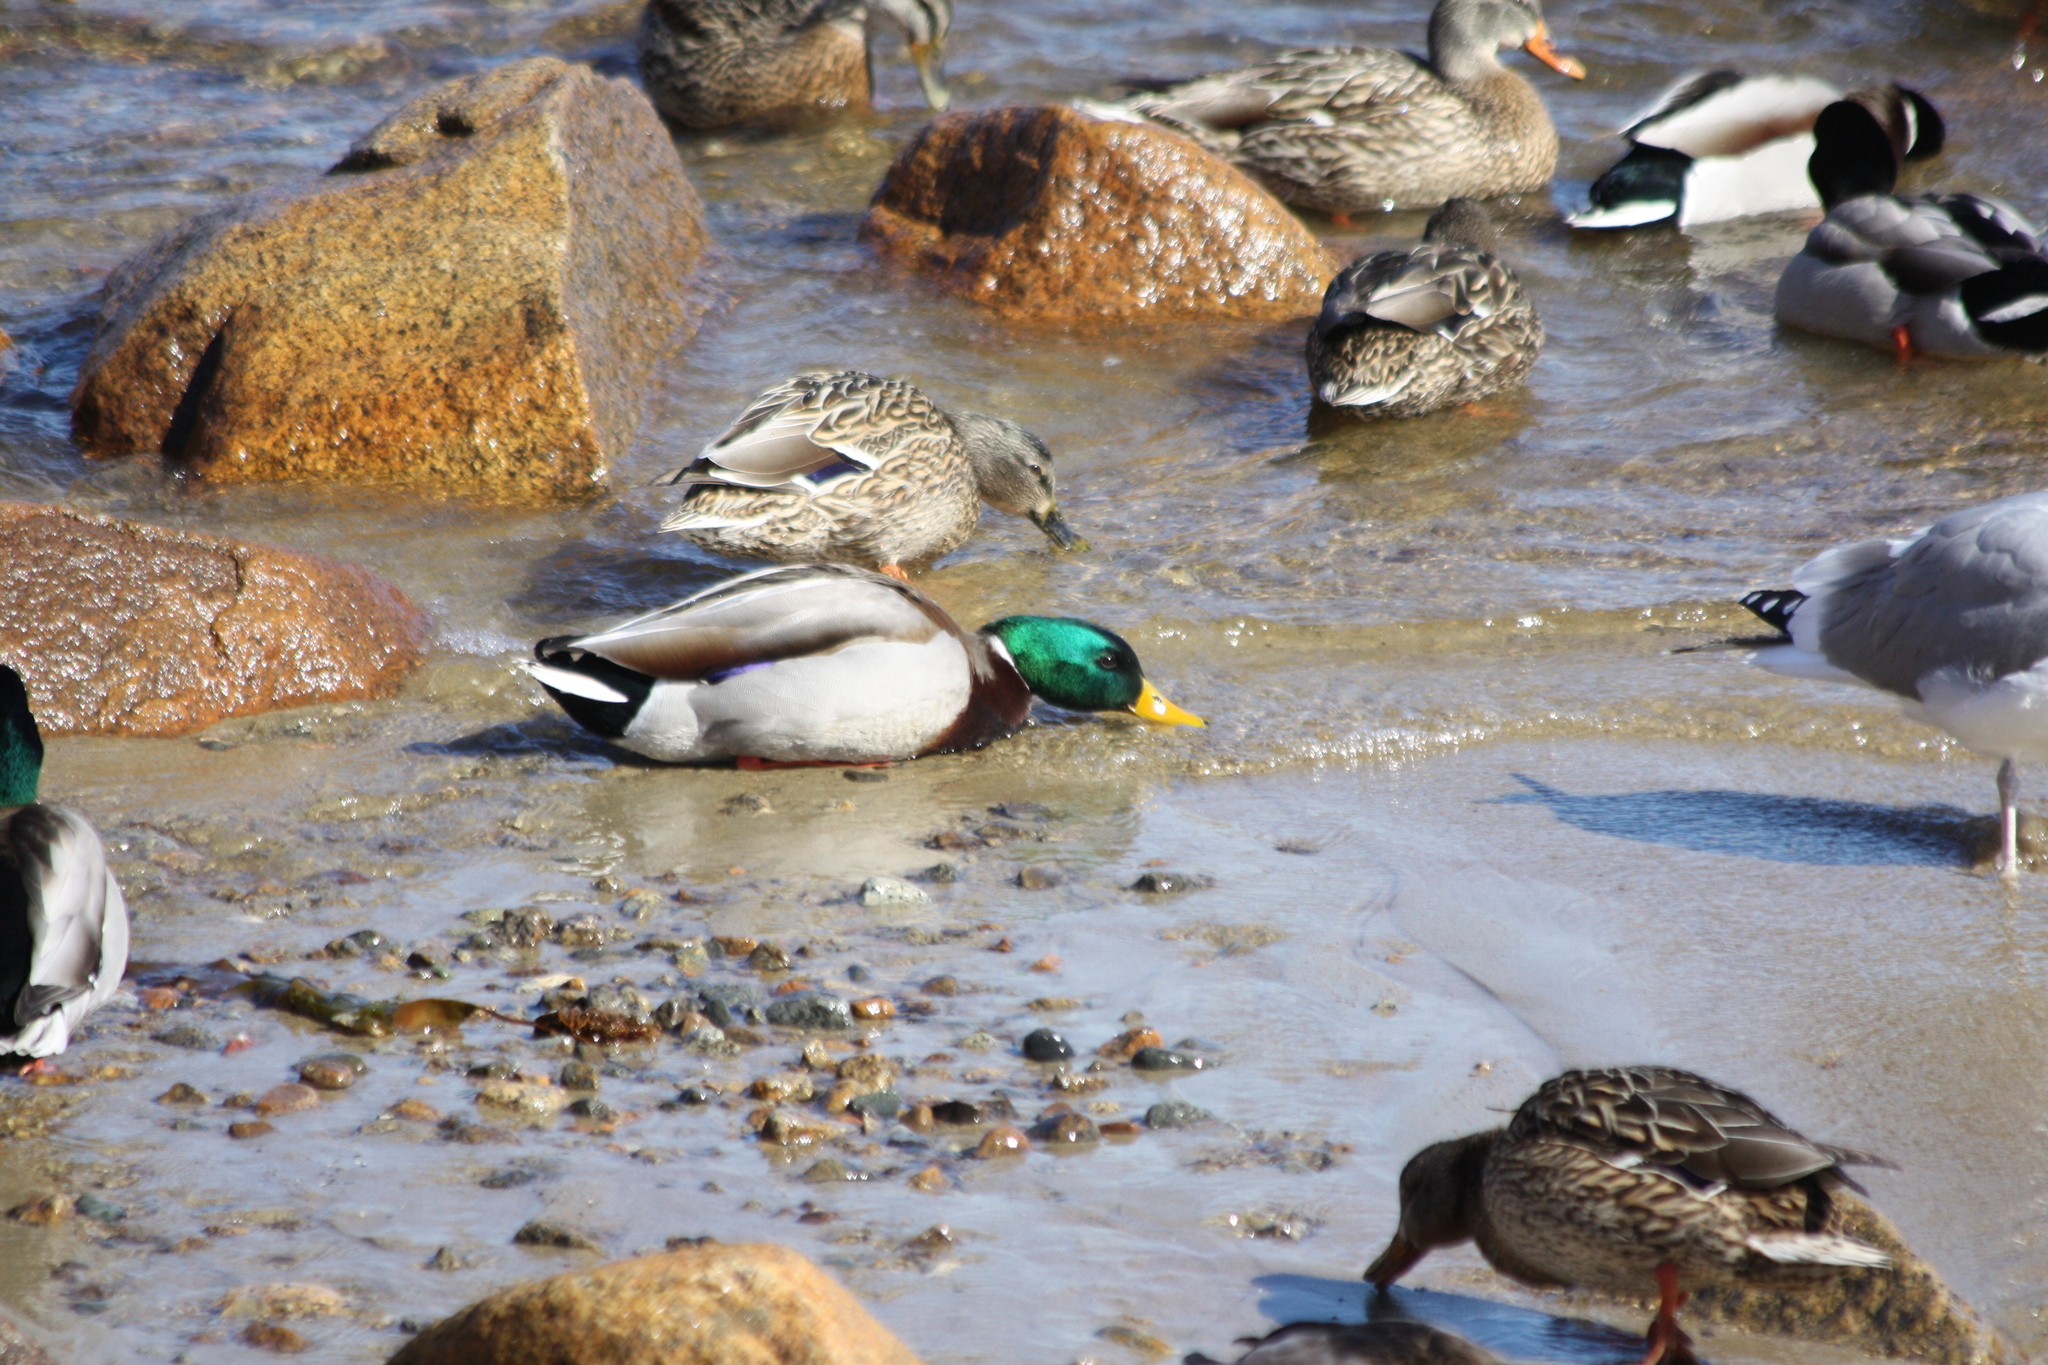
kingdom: Animalia
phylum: Chordata
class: Aves
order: Anseriformes
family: Anatidae
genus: Anas
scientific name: Anas platyrhynchos
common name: Mallard
